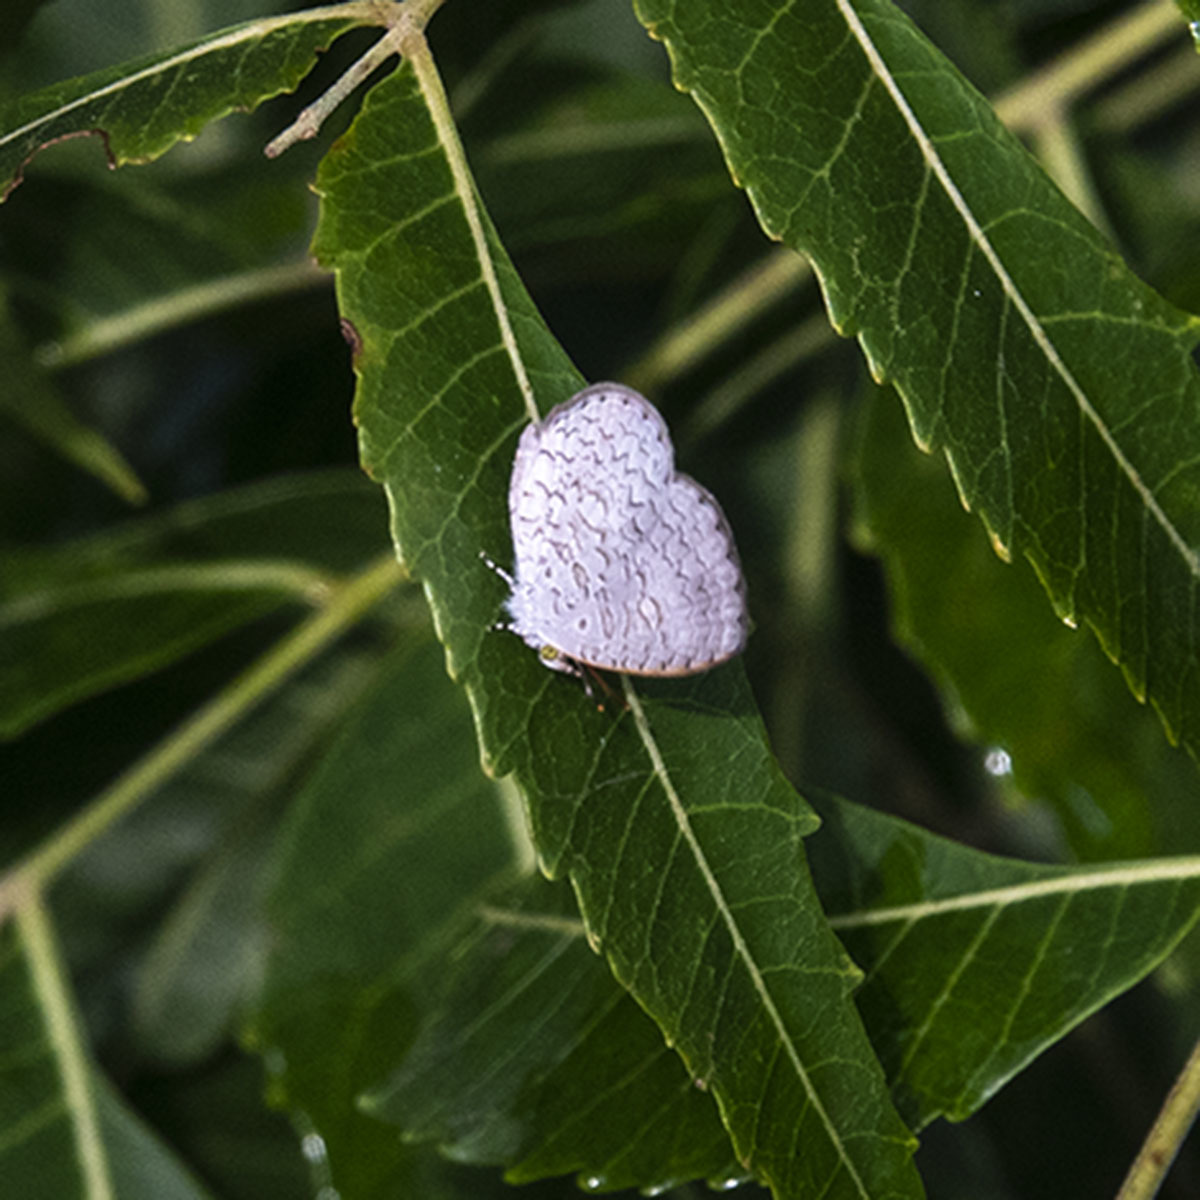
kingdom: Animalia
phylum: Arthropoda
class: Insecta
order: Lepidoptera
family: Lycaenidae
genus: Spalgis
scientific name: Spalgis epius
